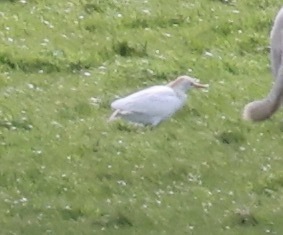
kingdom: Animalia
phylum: Chordata
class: Aves
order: Pelecaniformes
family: Ardeidae
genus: Bubulcus
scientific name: Bubulcus ibis
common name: Cattle egret
